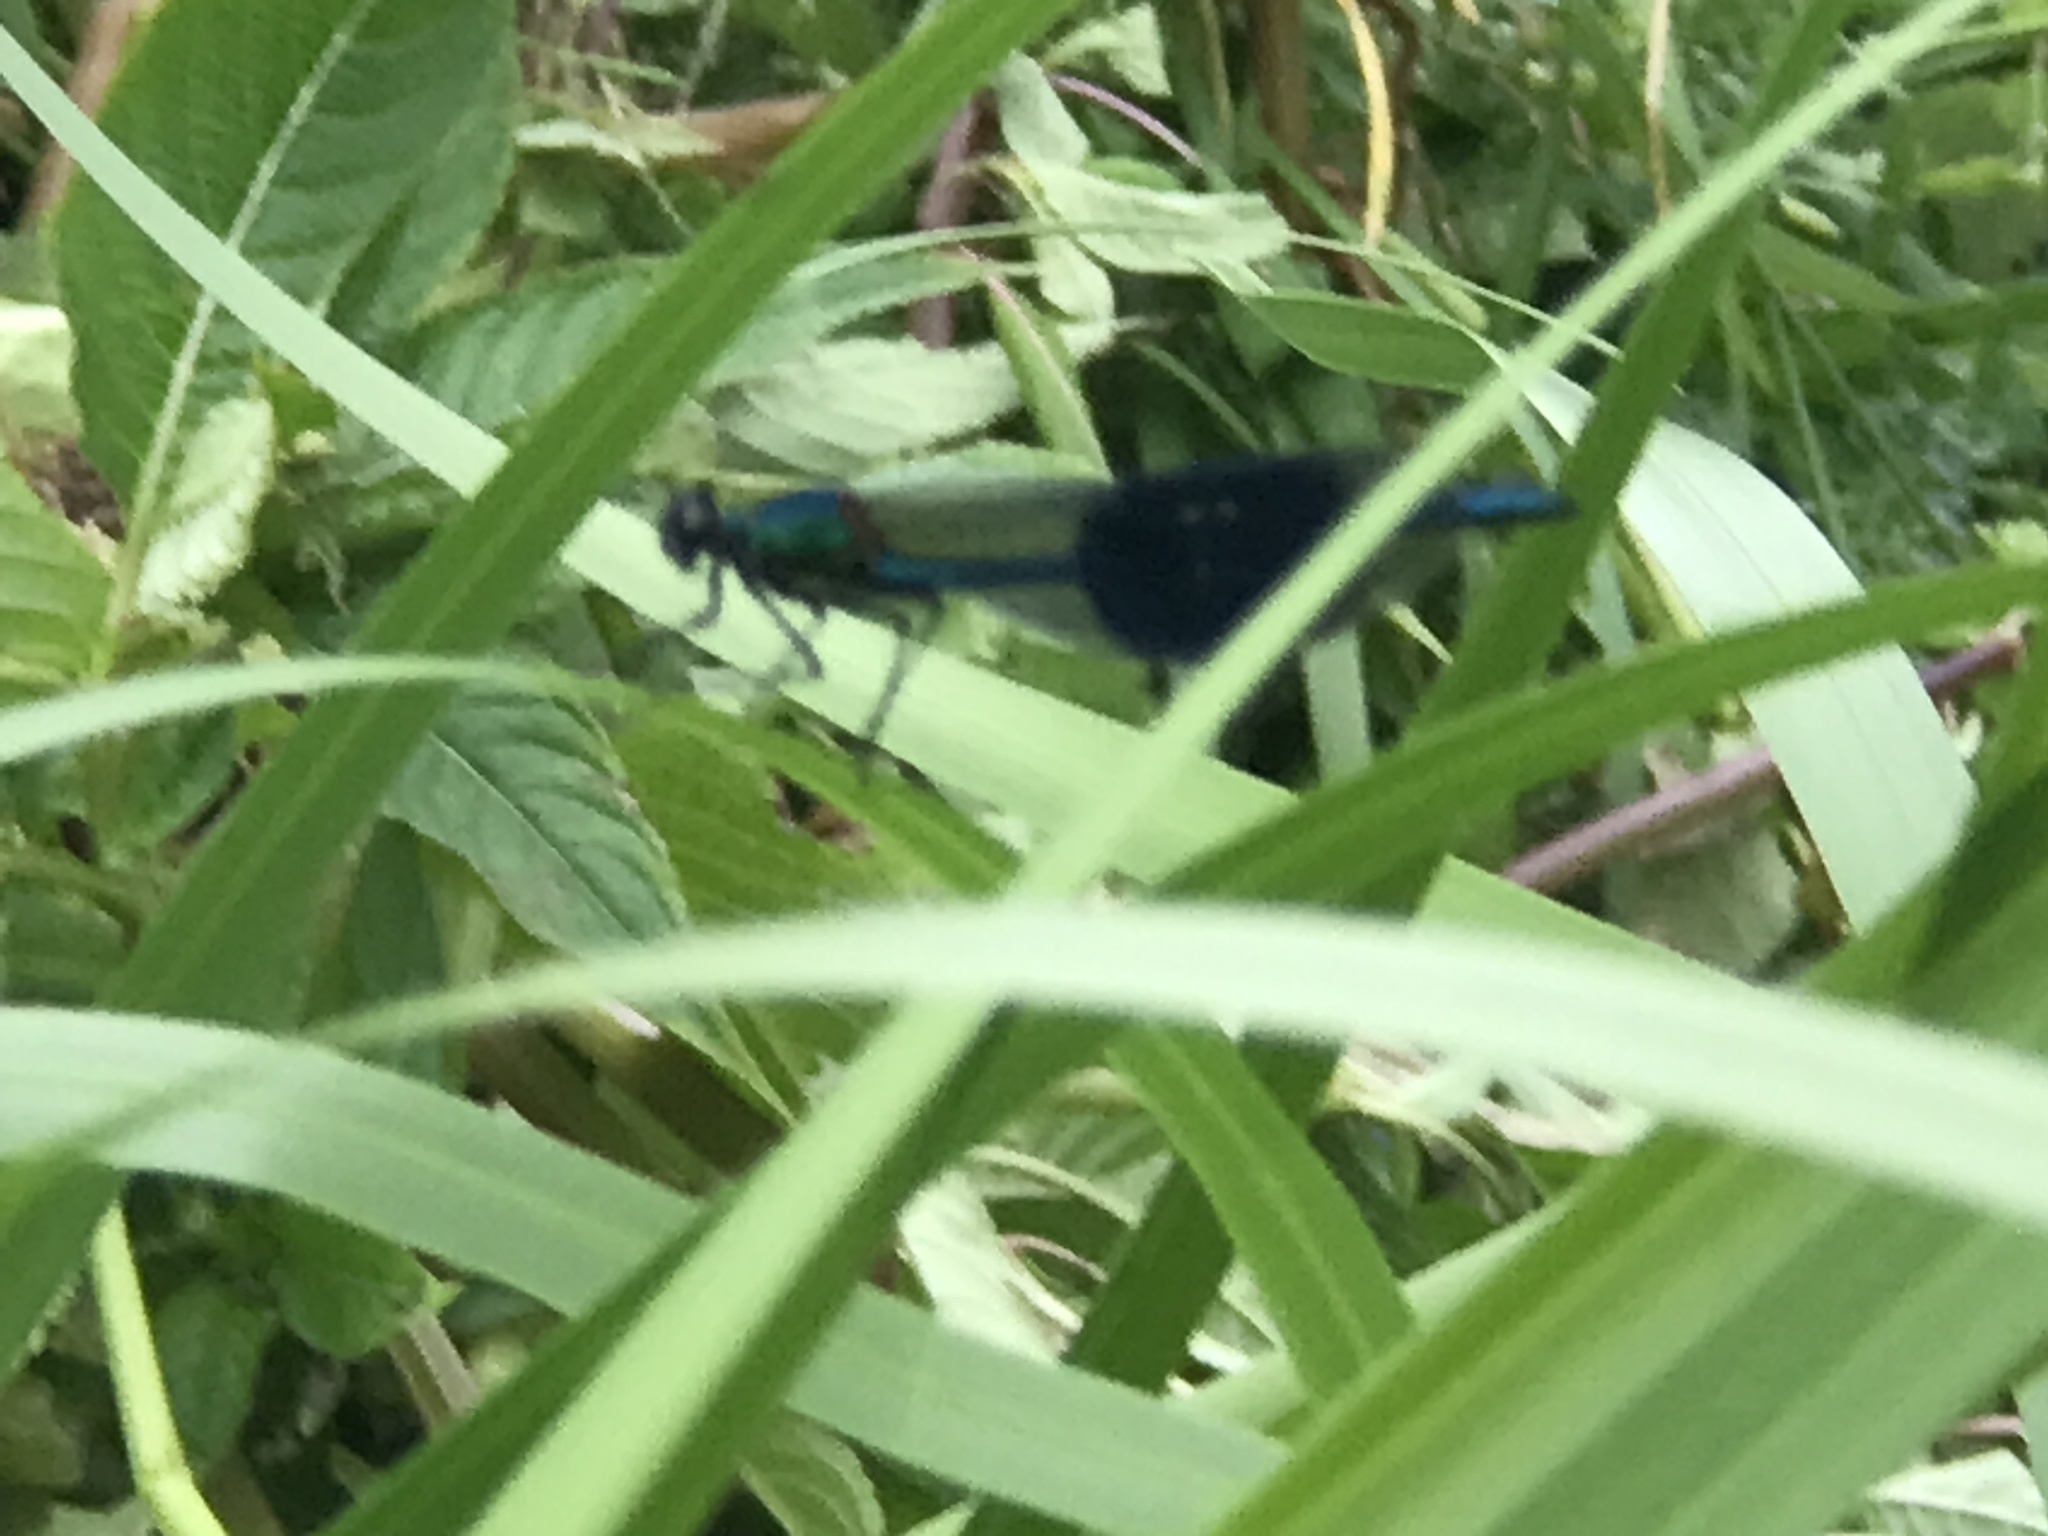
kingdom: Animalia
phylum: Arthropoda
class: Insecta
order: Odonata
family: Calopterygidae
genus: Calopteryx
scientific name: Calopteryx splendens
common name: Banded demoiselle
